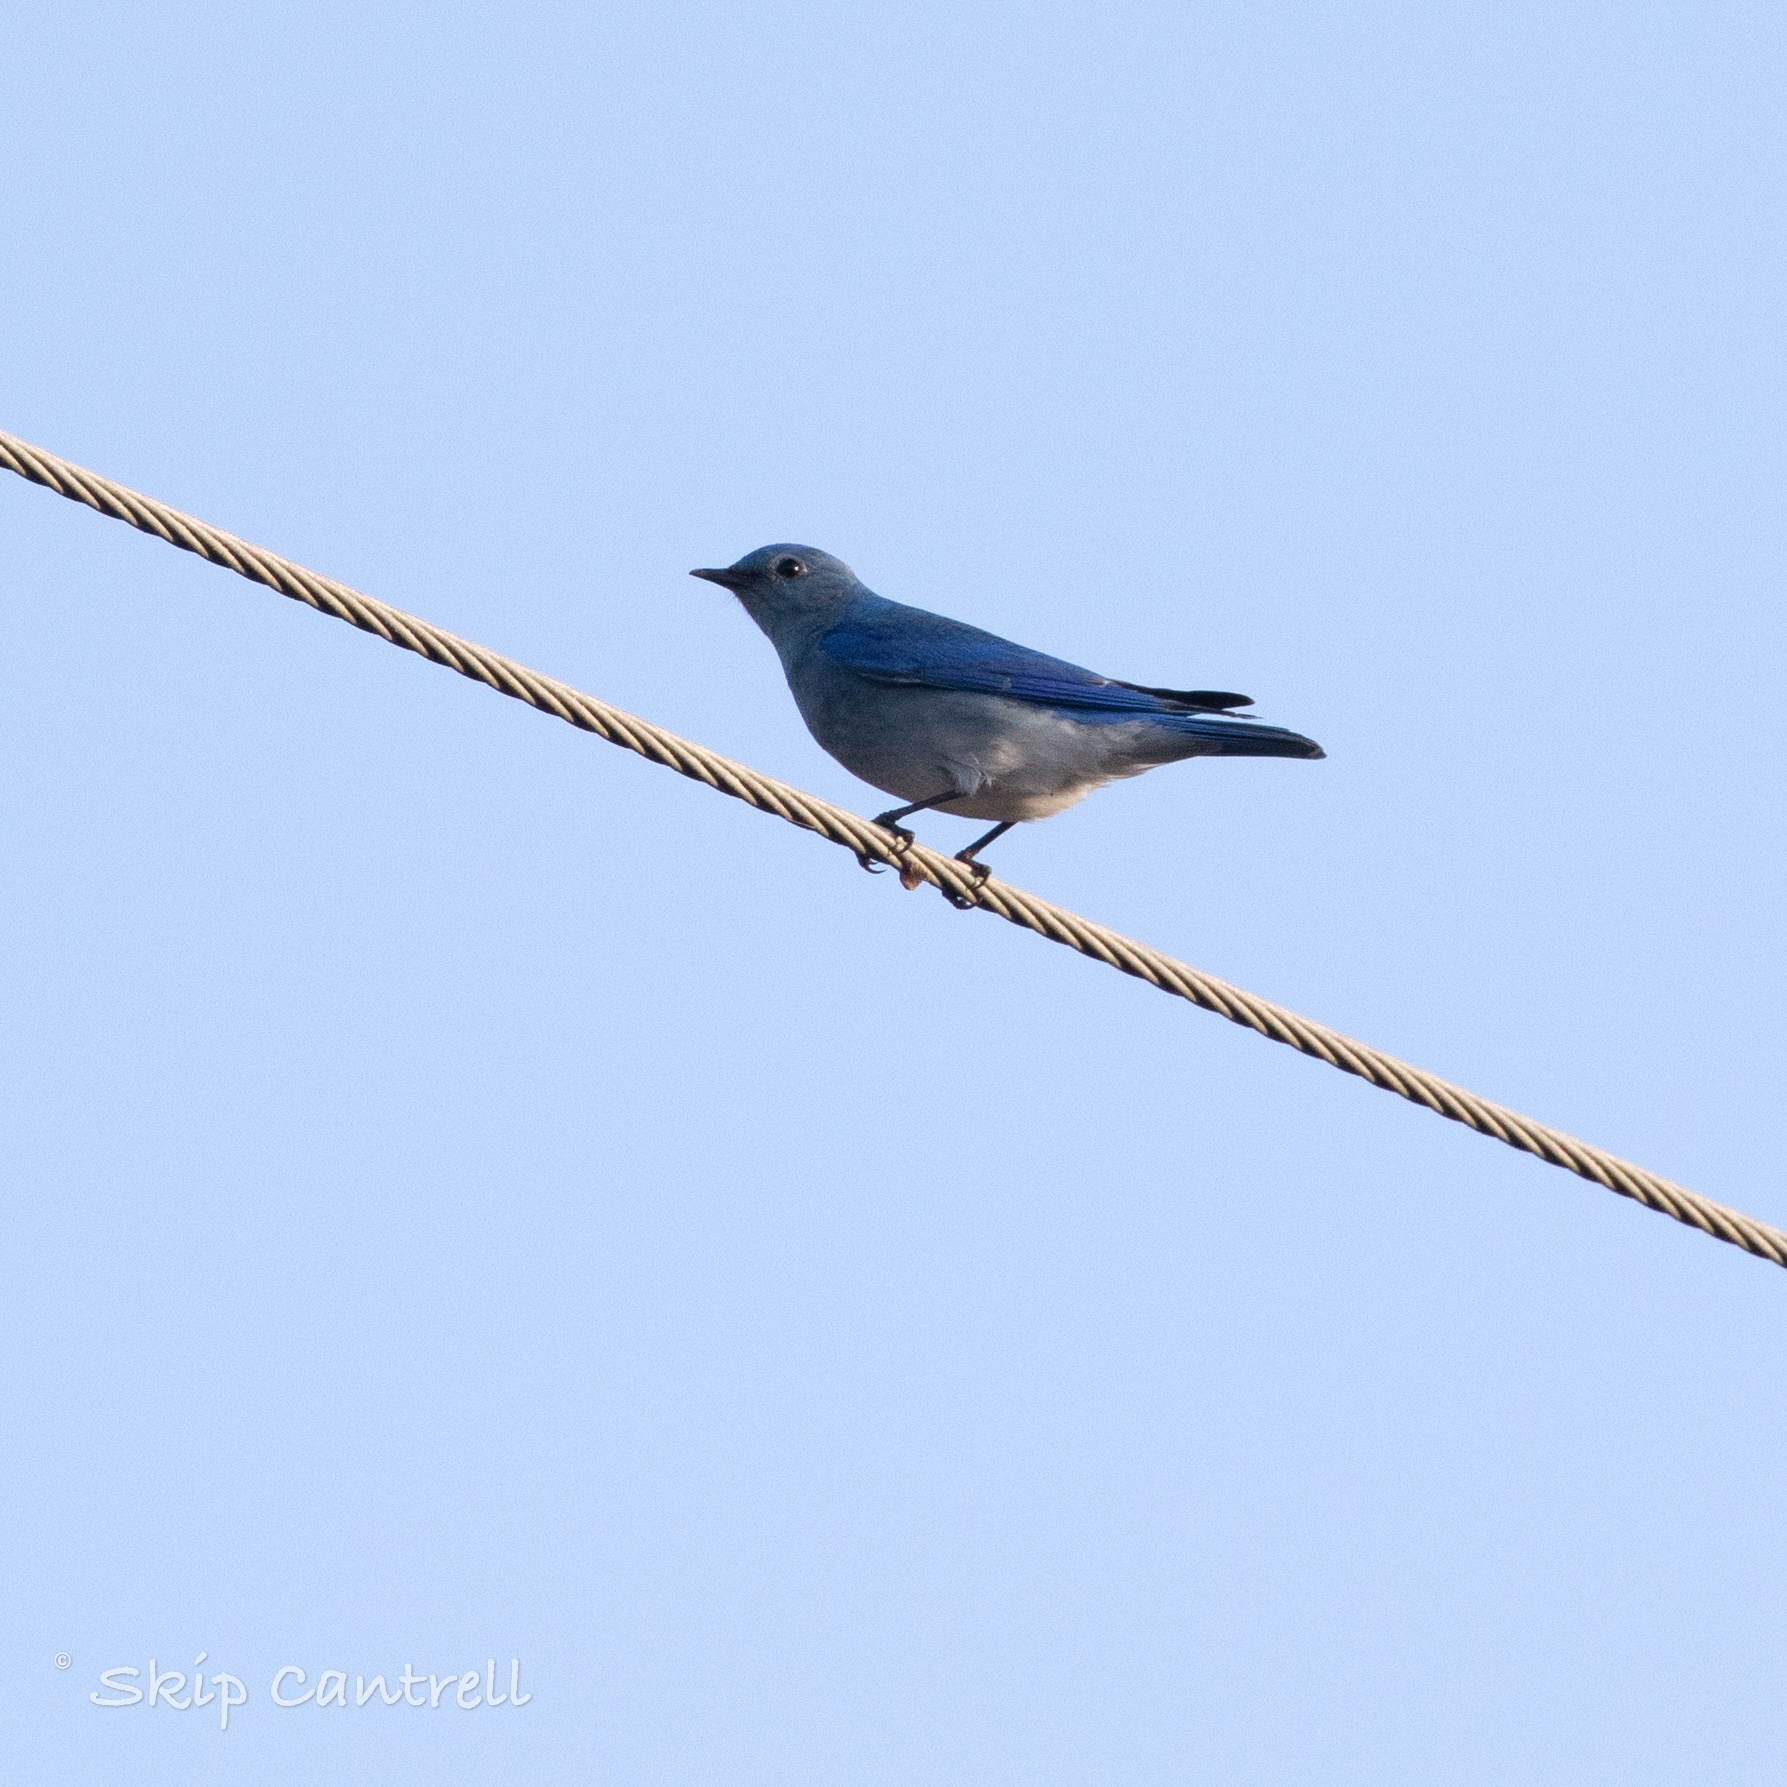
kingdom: Animalia
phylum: Chordata
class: Aves
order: Passeriformes
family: Turdidae
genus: Sialia
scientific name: Sialia currucoides
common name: Mountain bluebird
